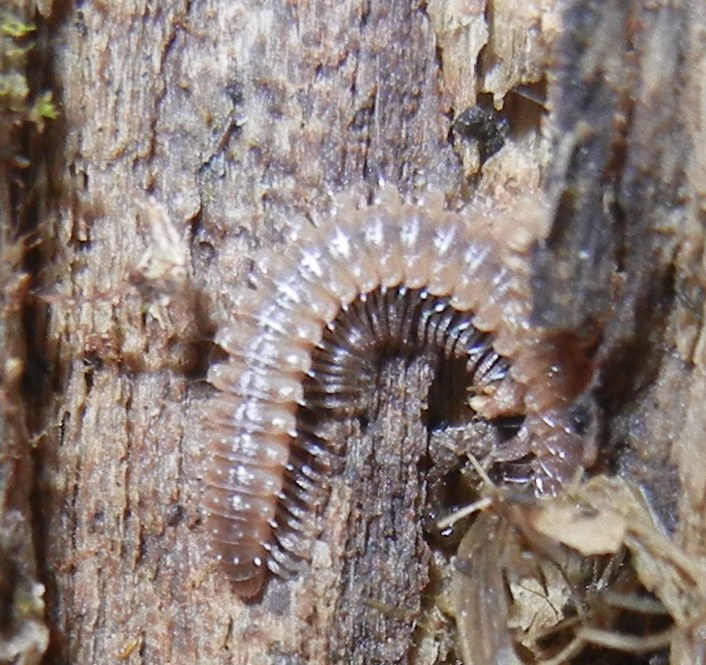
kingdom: Animalia
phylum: Arthropoda
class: Diplopoda
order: Chordeumatida
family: Craspedosomatidae
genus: Nanogona
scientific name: Nanogona polydesmoides
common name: Eyed flat-backed millipede
